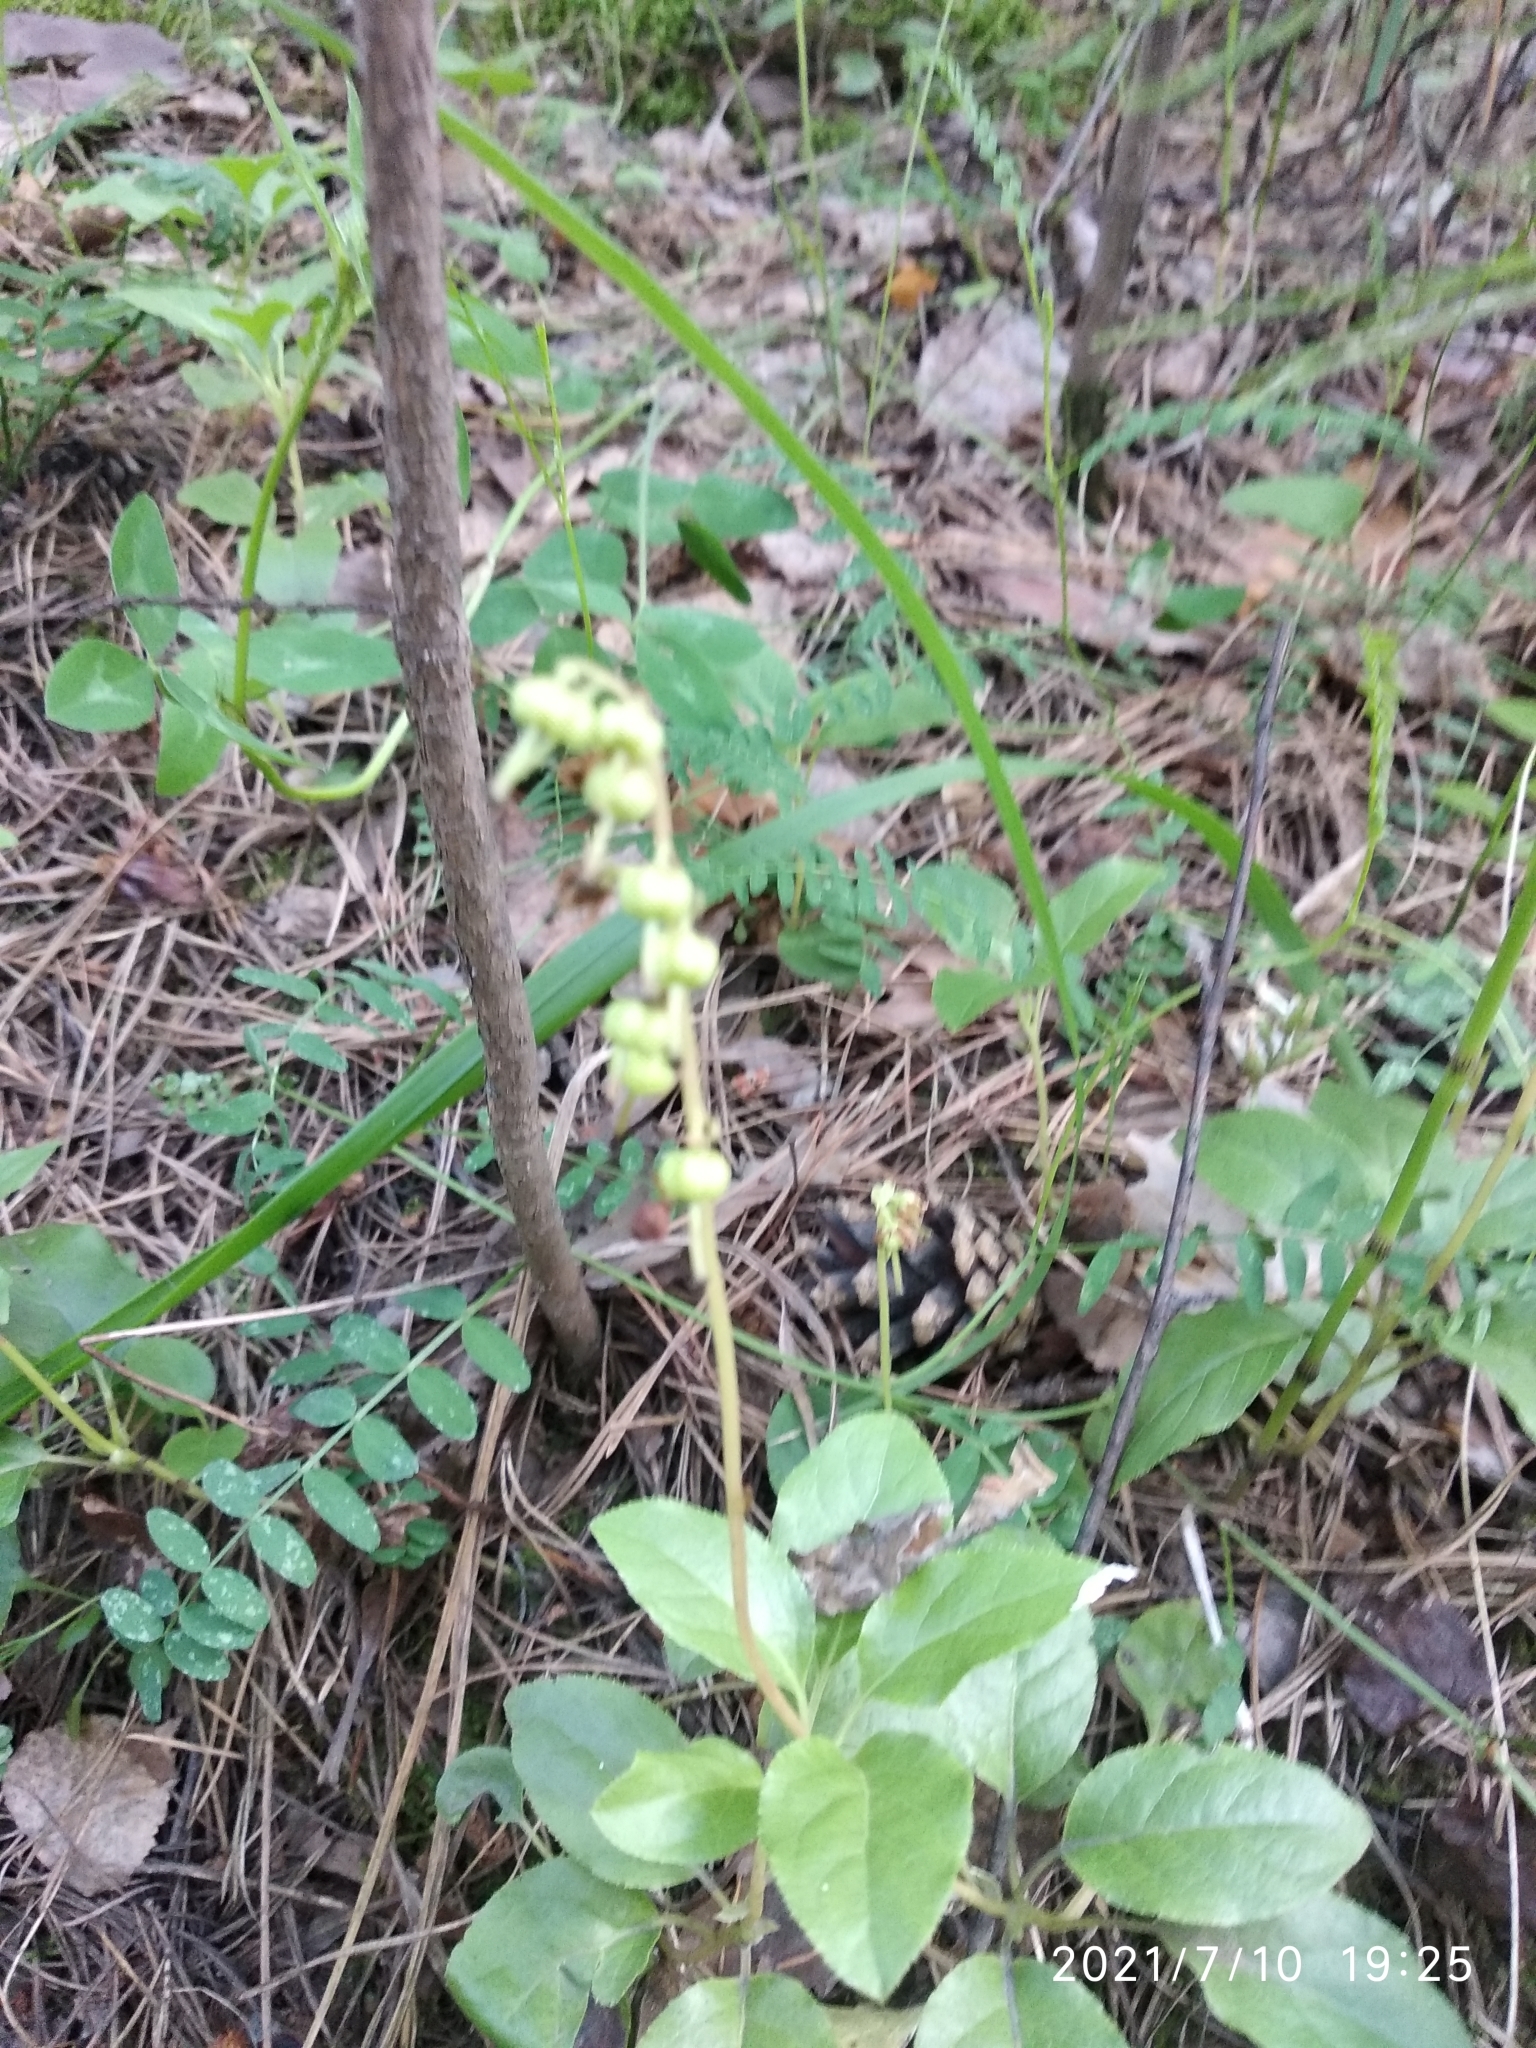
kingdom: Plantae
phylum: Tracheophyta
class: Magnoliopsida
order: Ericales
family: Ericaceae
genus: Orthilia
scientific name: Orthilia secunda
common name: One-sided orthilia
